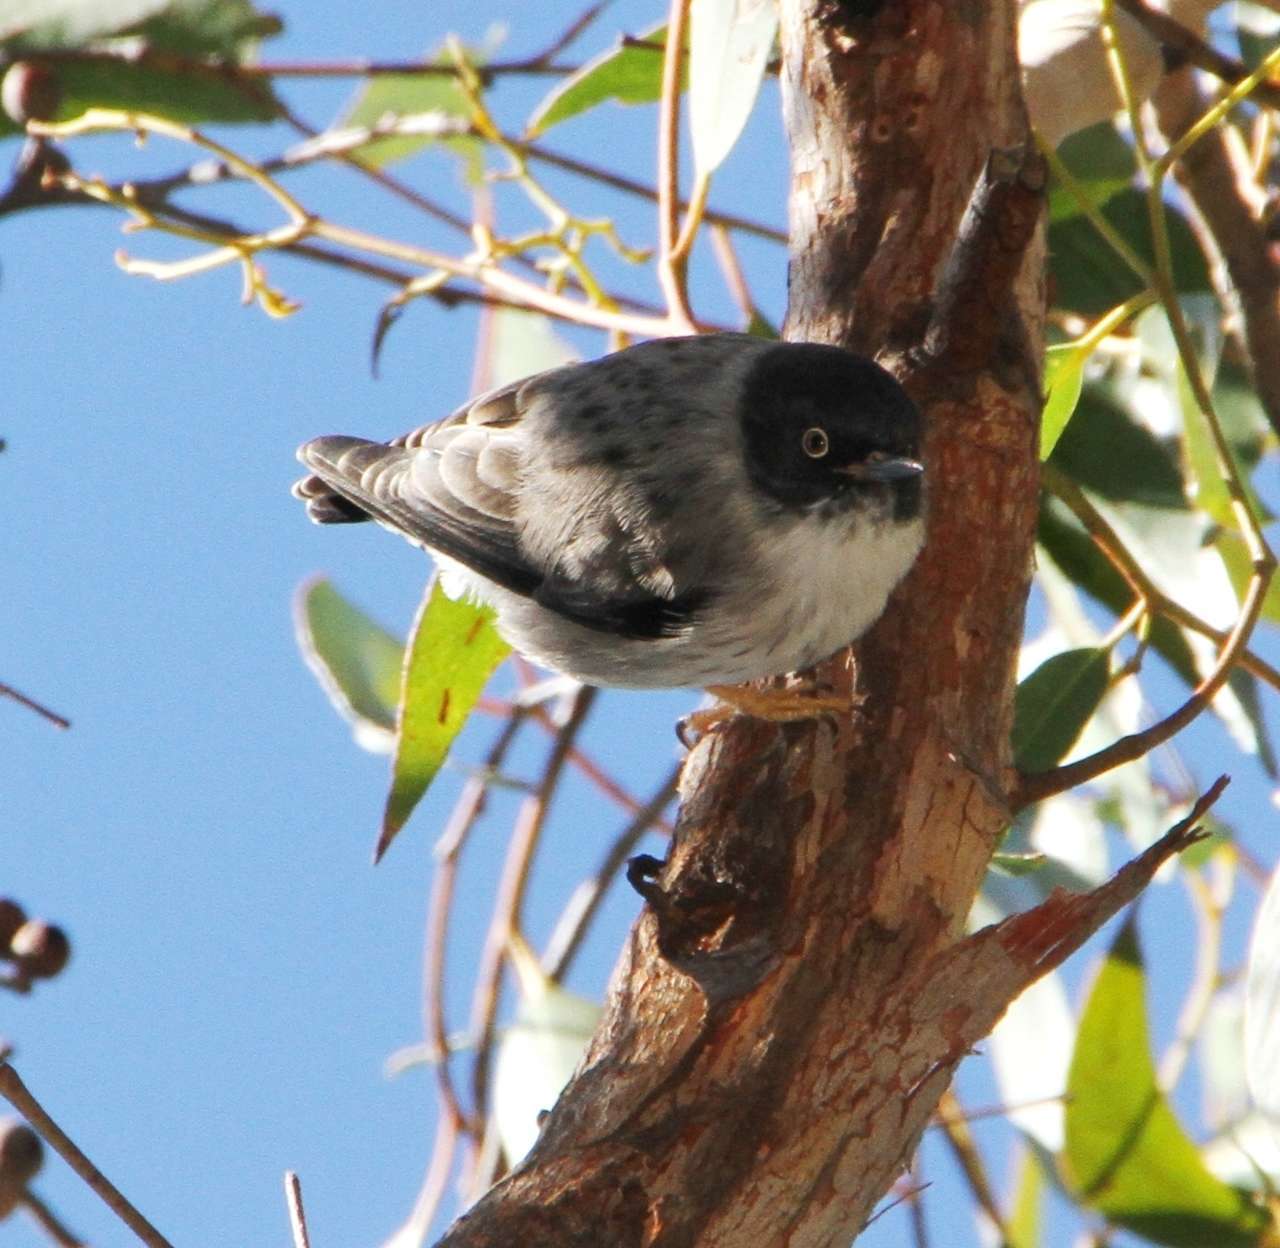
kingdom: Animalia
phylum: Chordata
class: Aves
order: Passeriformes
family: Neosittidae
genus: Daphoenositta
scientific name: Daphoenositta chrysoptera
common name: Varied sittella
